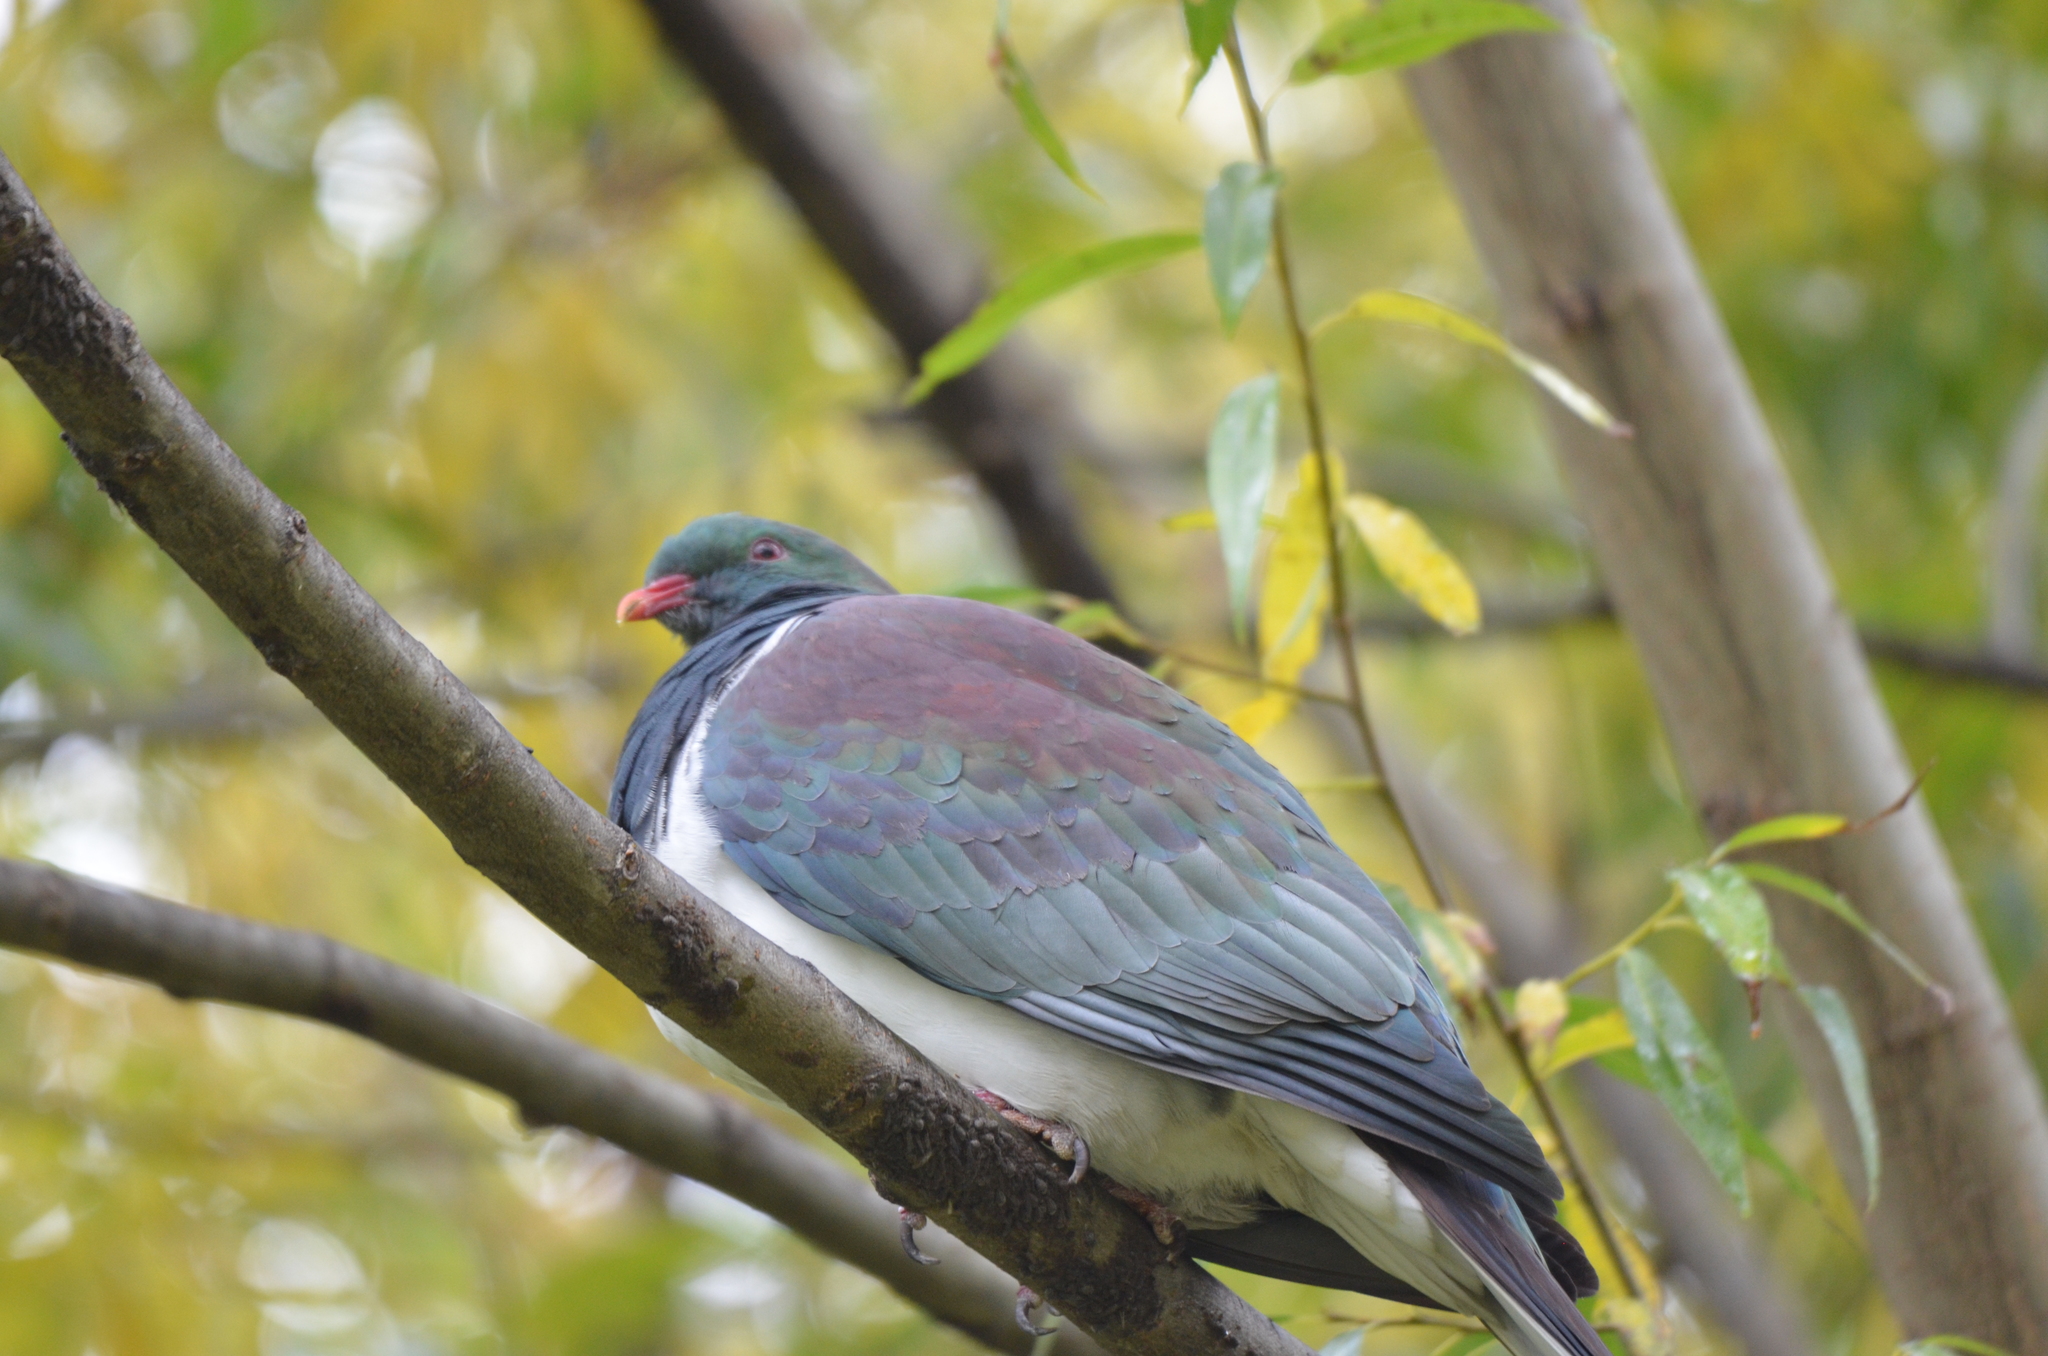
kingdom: Animalia
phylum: Chordata
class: Aves
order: Columbiformes
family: Columbidae
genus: Hemiphaga
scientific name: Hemiphaga novaeseelandiae
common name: New zealand pigeon
